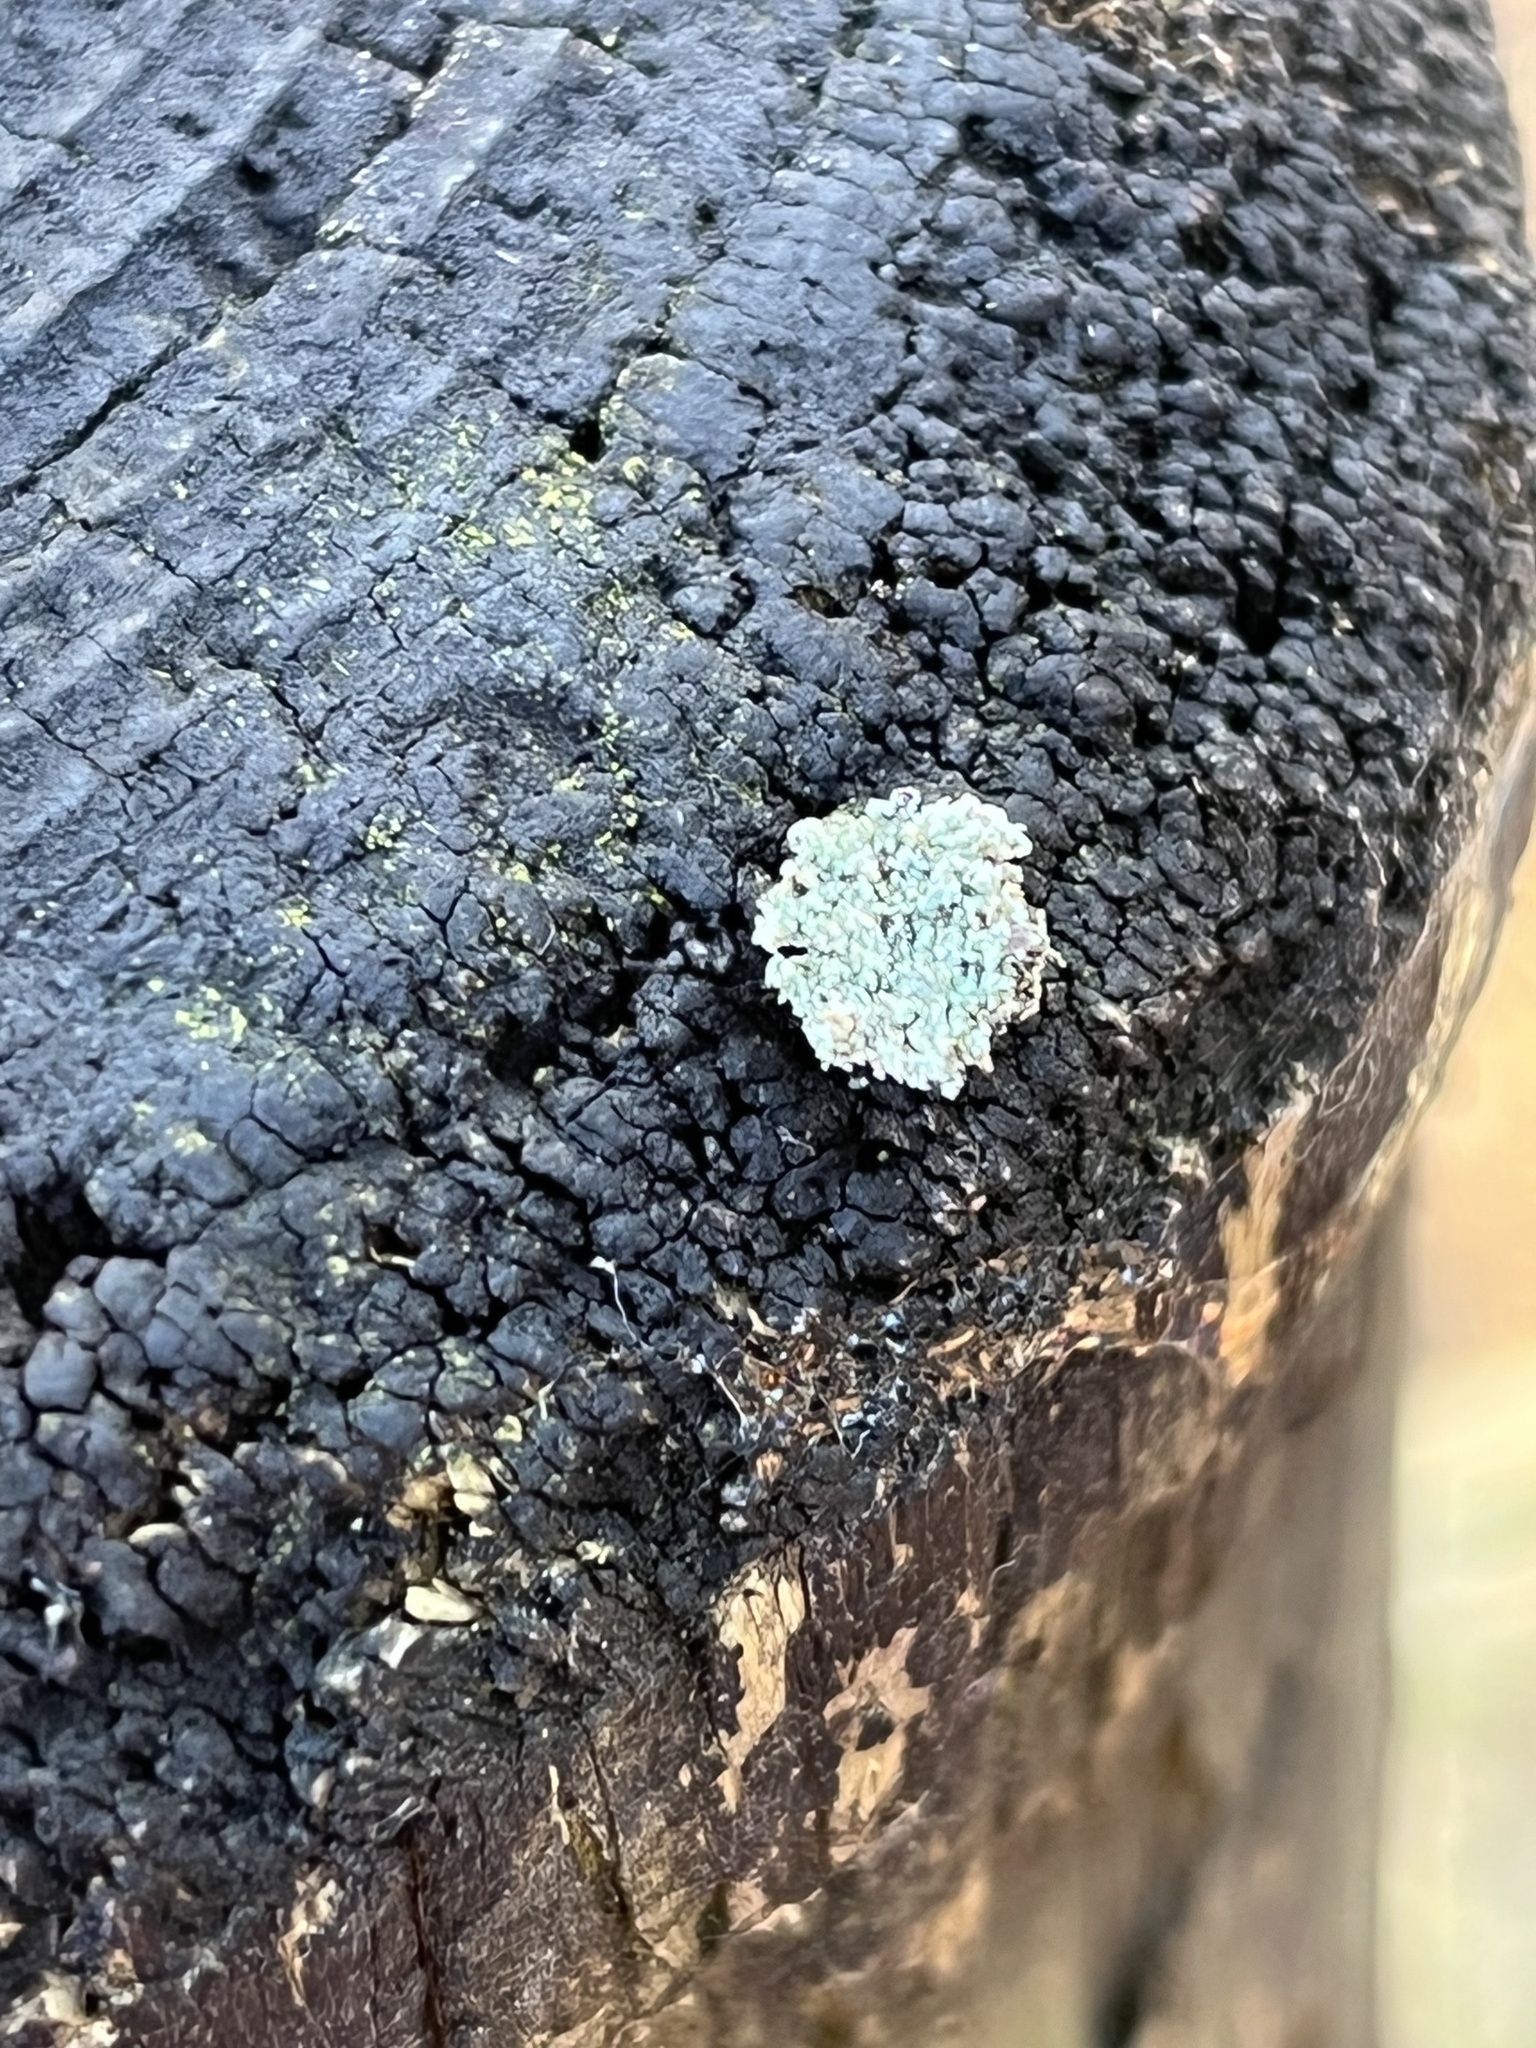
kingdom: Animalia
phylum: Arthropoda
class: Insecta
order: Neuroptera
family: Chrysopidae
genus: Leucochrysa
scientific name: Leucochrysa pavida
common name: Lichen-carrying green lacewing
